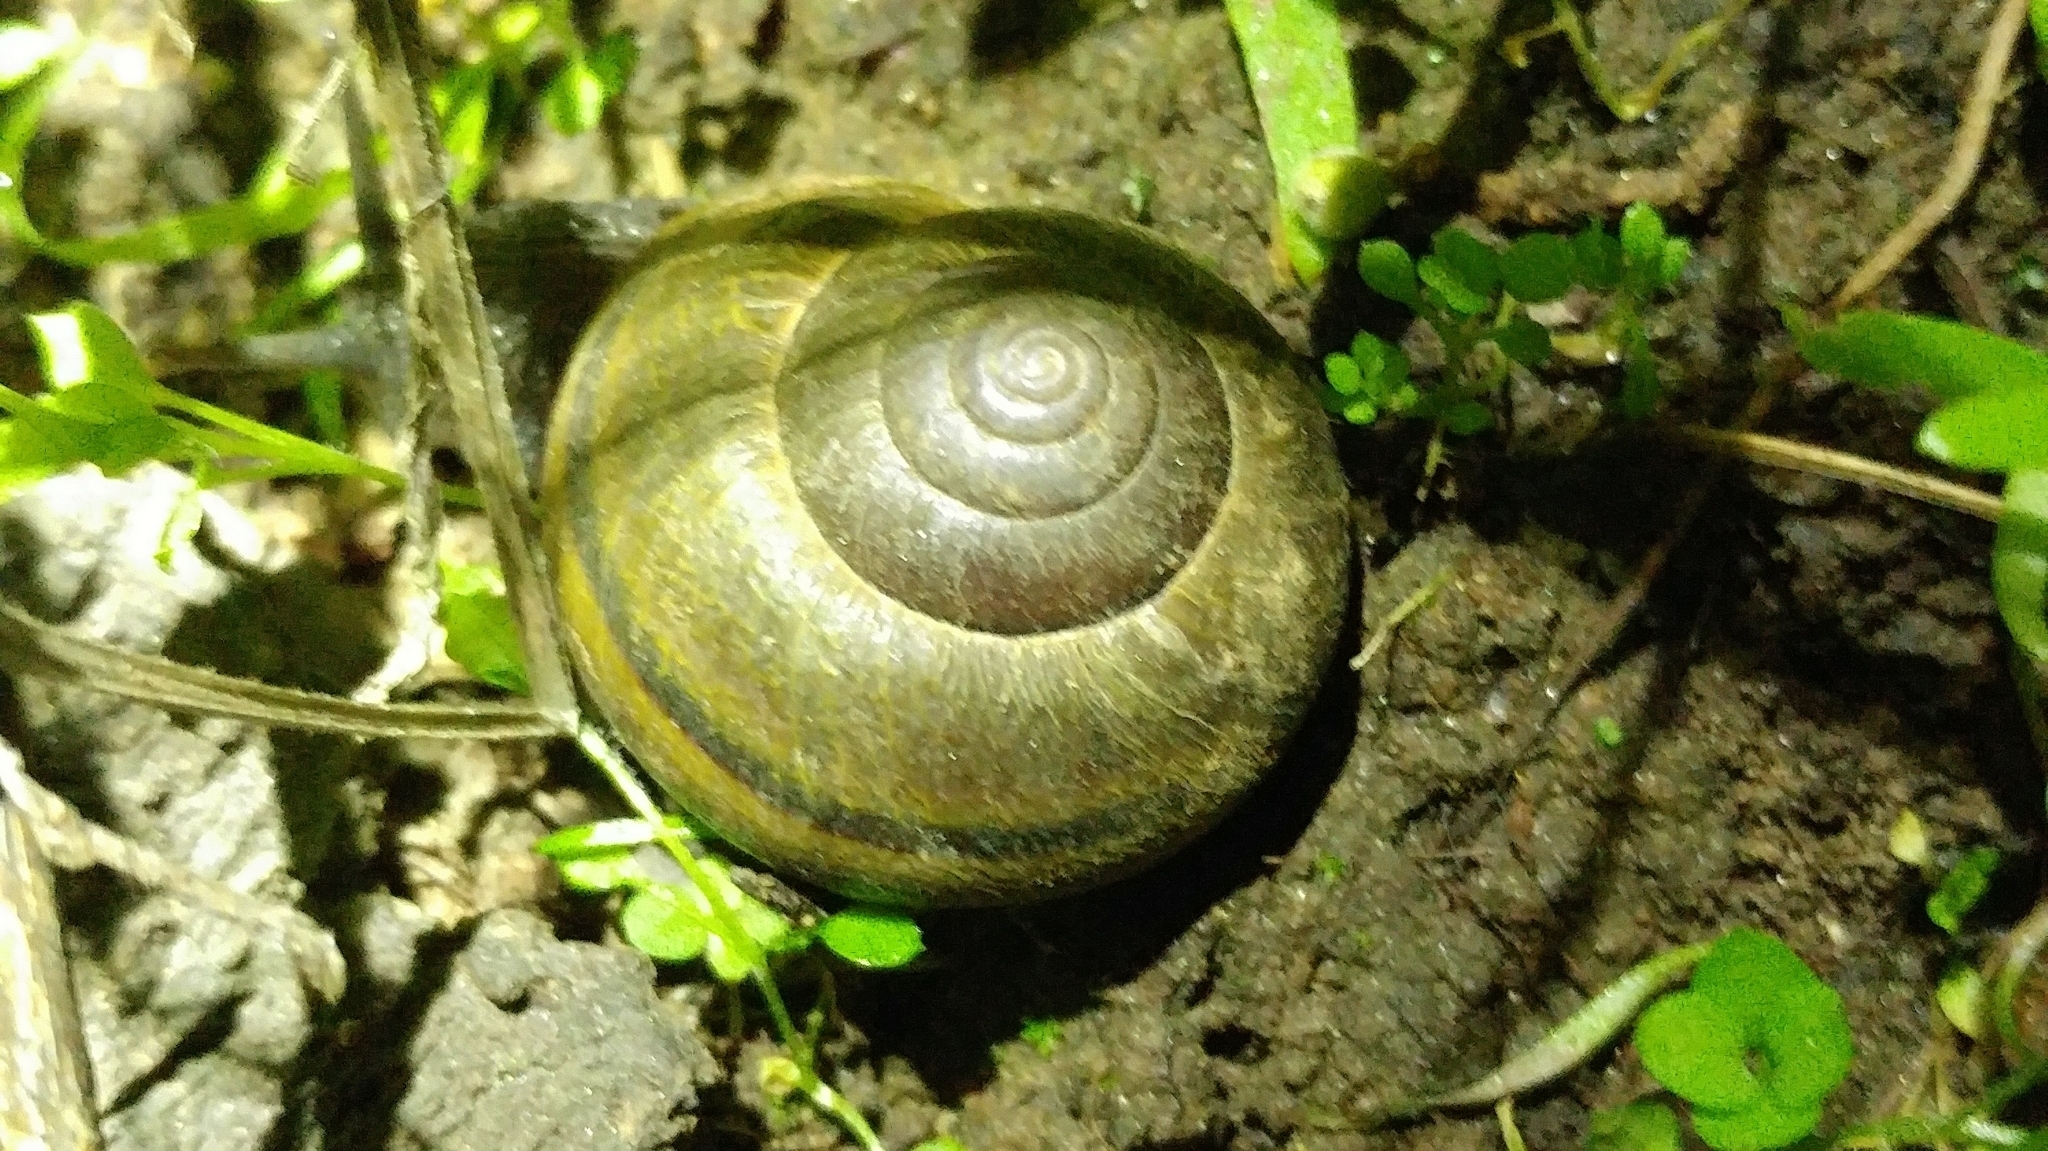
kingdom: Animalia
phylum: Mollusca
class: Gastropoda
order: Stylommatophora
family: Xanthonychidae
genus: Helminthoglypta
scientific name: Helminthoglypta tudiculata
